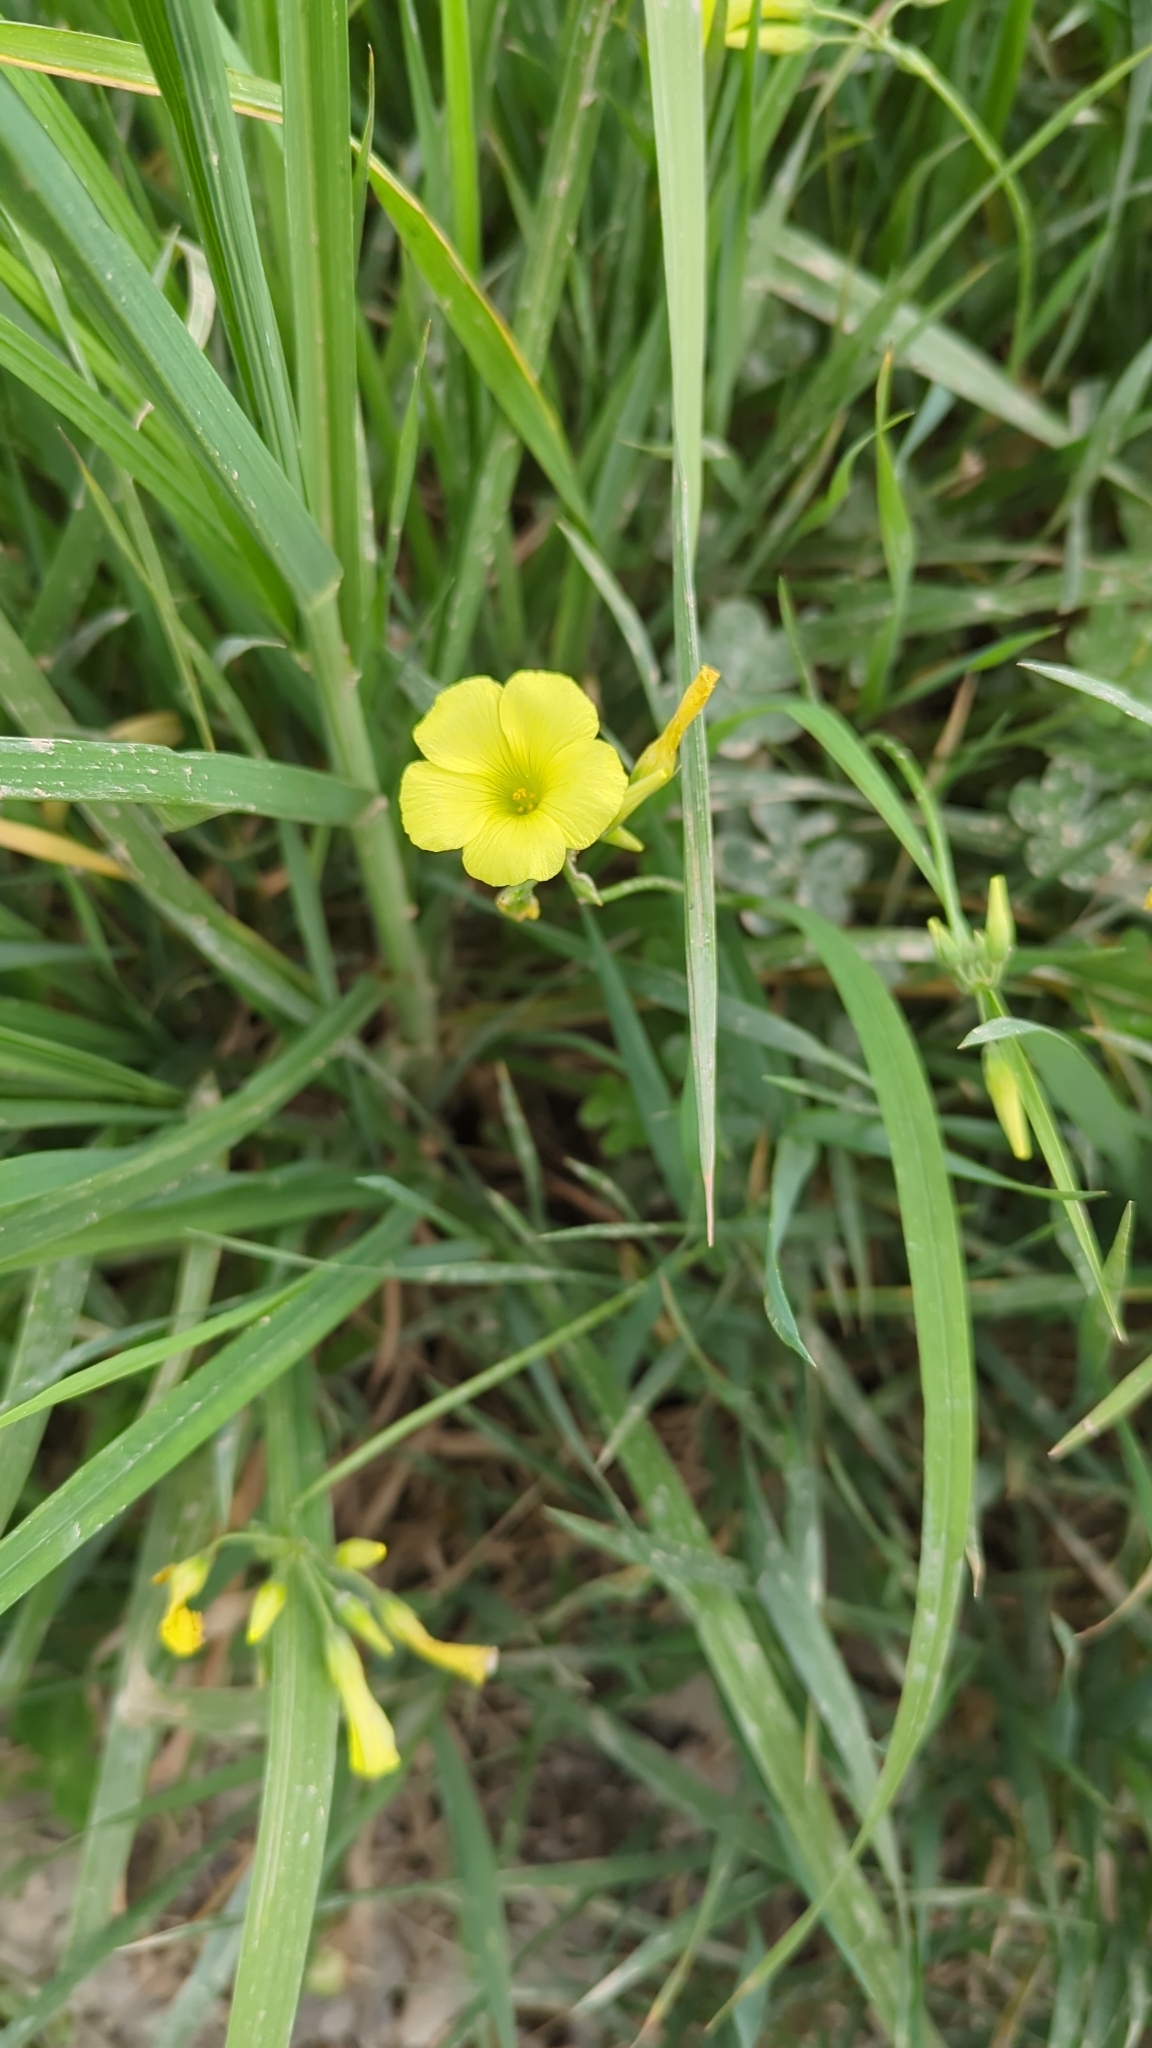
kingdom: Plantae
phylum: Tracheophyta
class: Magnoliopsida
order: Oxalidales
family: Oxalidaceae
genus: Oxalis
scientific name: Oxalis pes-caprae
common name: Bermuda-buttercup
